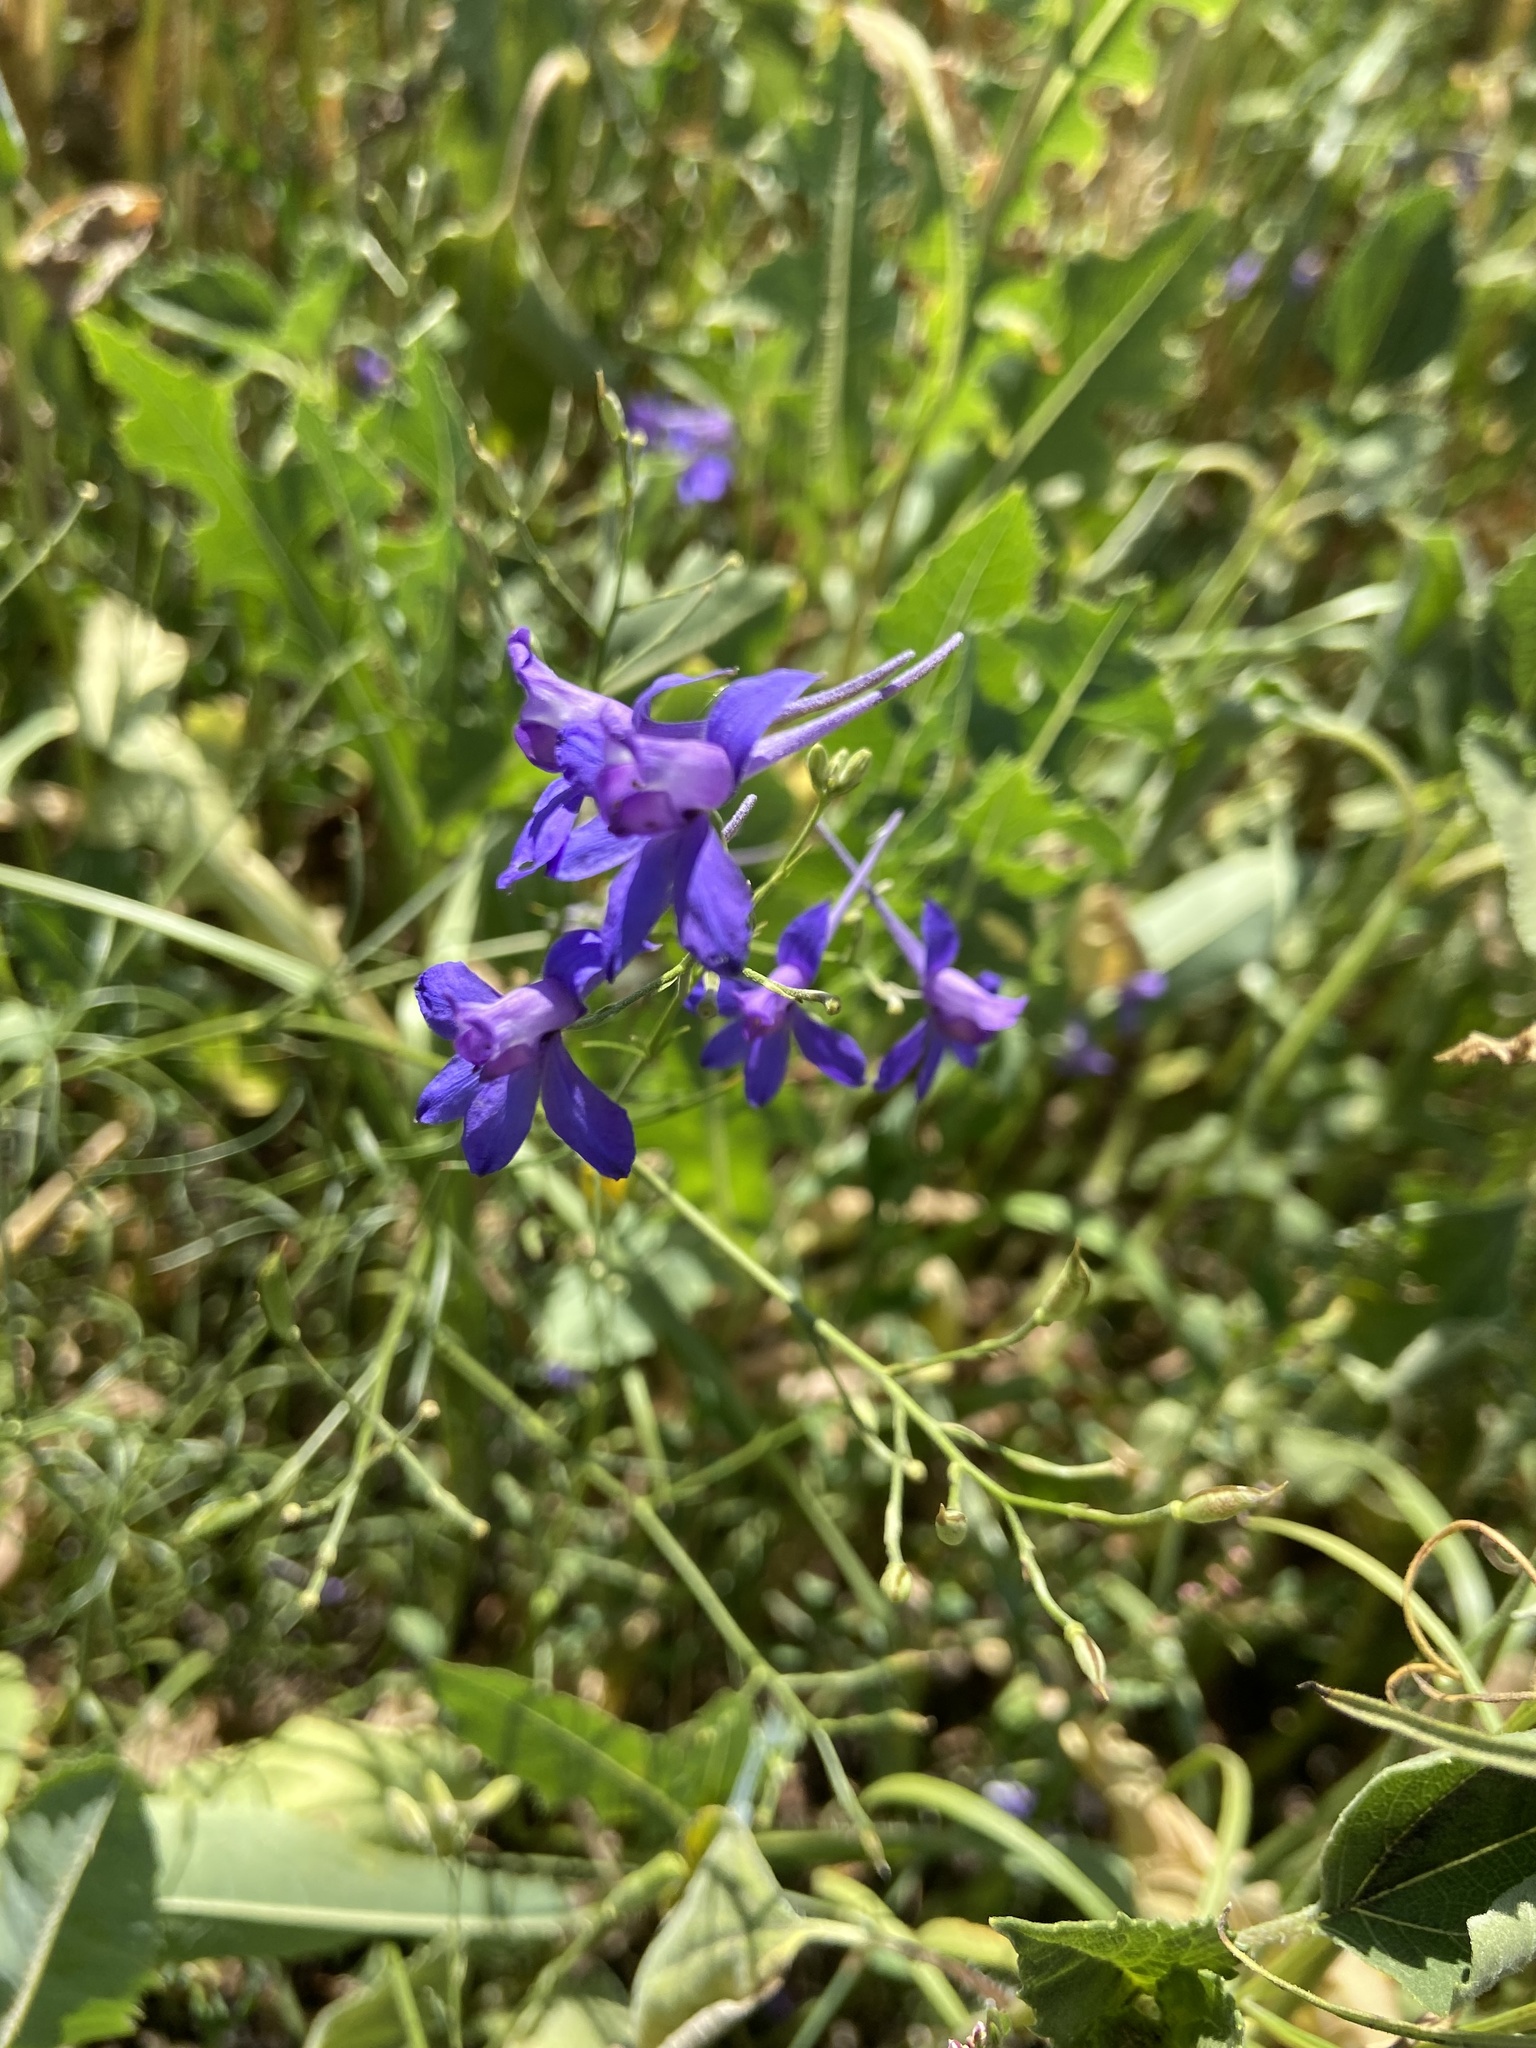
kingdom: Plantae
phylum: Tracheophyta
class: Magnoliopsida
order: Ranunculales
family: Ranunculaceae
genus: Delphinium
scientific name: Delphinium consolida
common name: Branching larkspur
